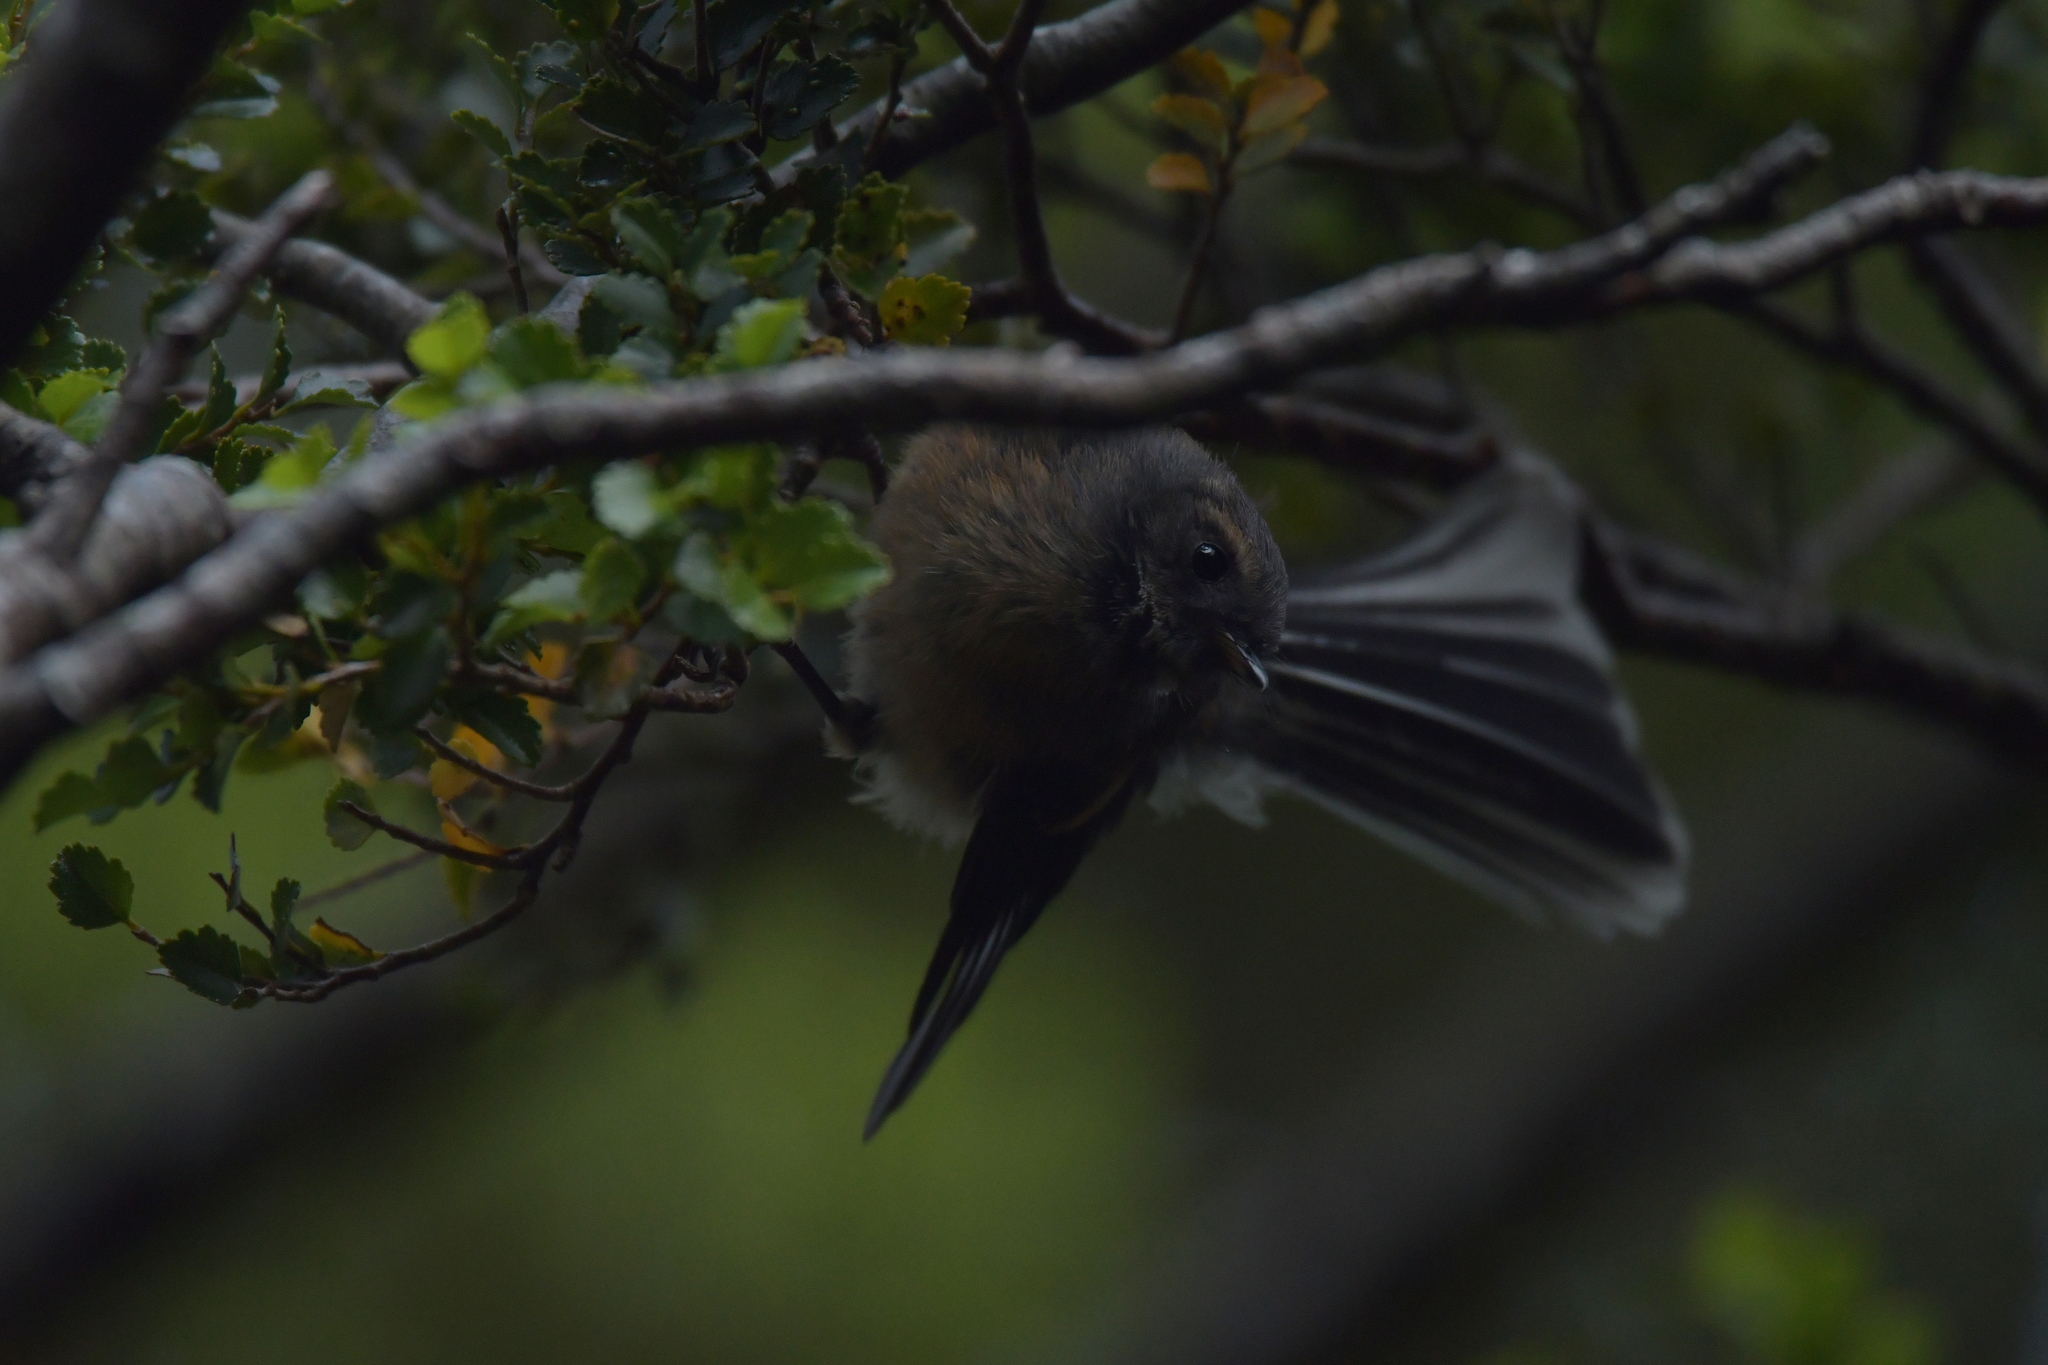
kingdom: Animalia
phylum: Chordata
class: Aves
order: Passeriformes
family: Rhipiduridae
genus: Rhipidura
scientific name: Rhipidura fuliginosa
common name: New zealand fantail
